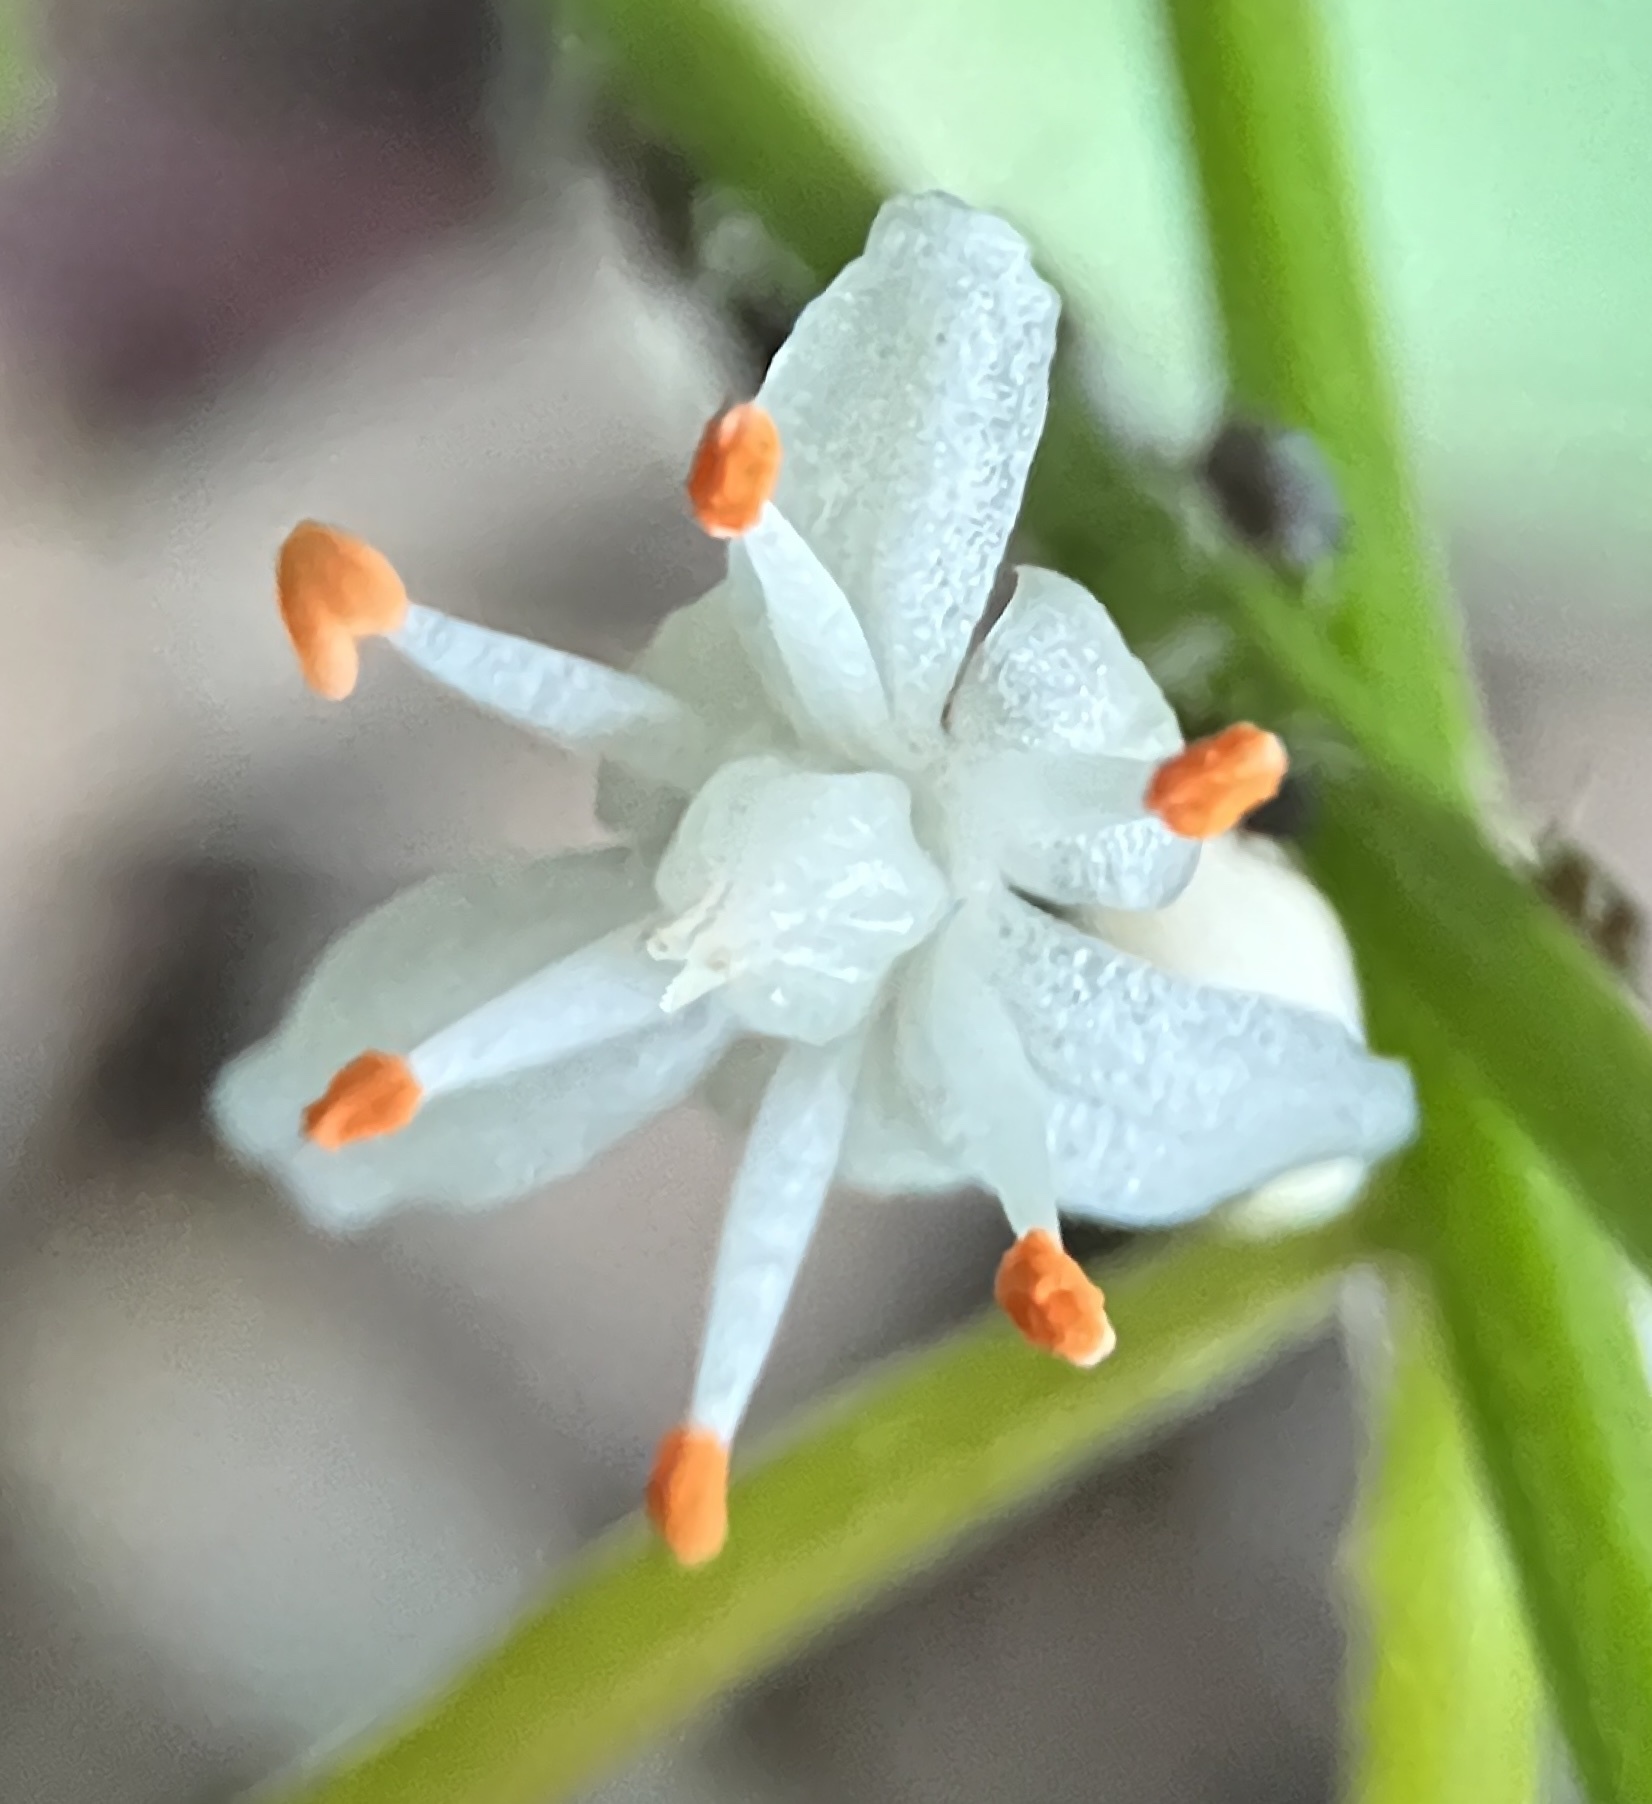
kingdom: Plantae
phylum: Tracheophyta
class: Liliopsida
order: Asparagales
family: Asparagaceae
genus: Asparagus
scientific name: Asparagus aethiopicus
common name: Sprenger's asparagus fern
